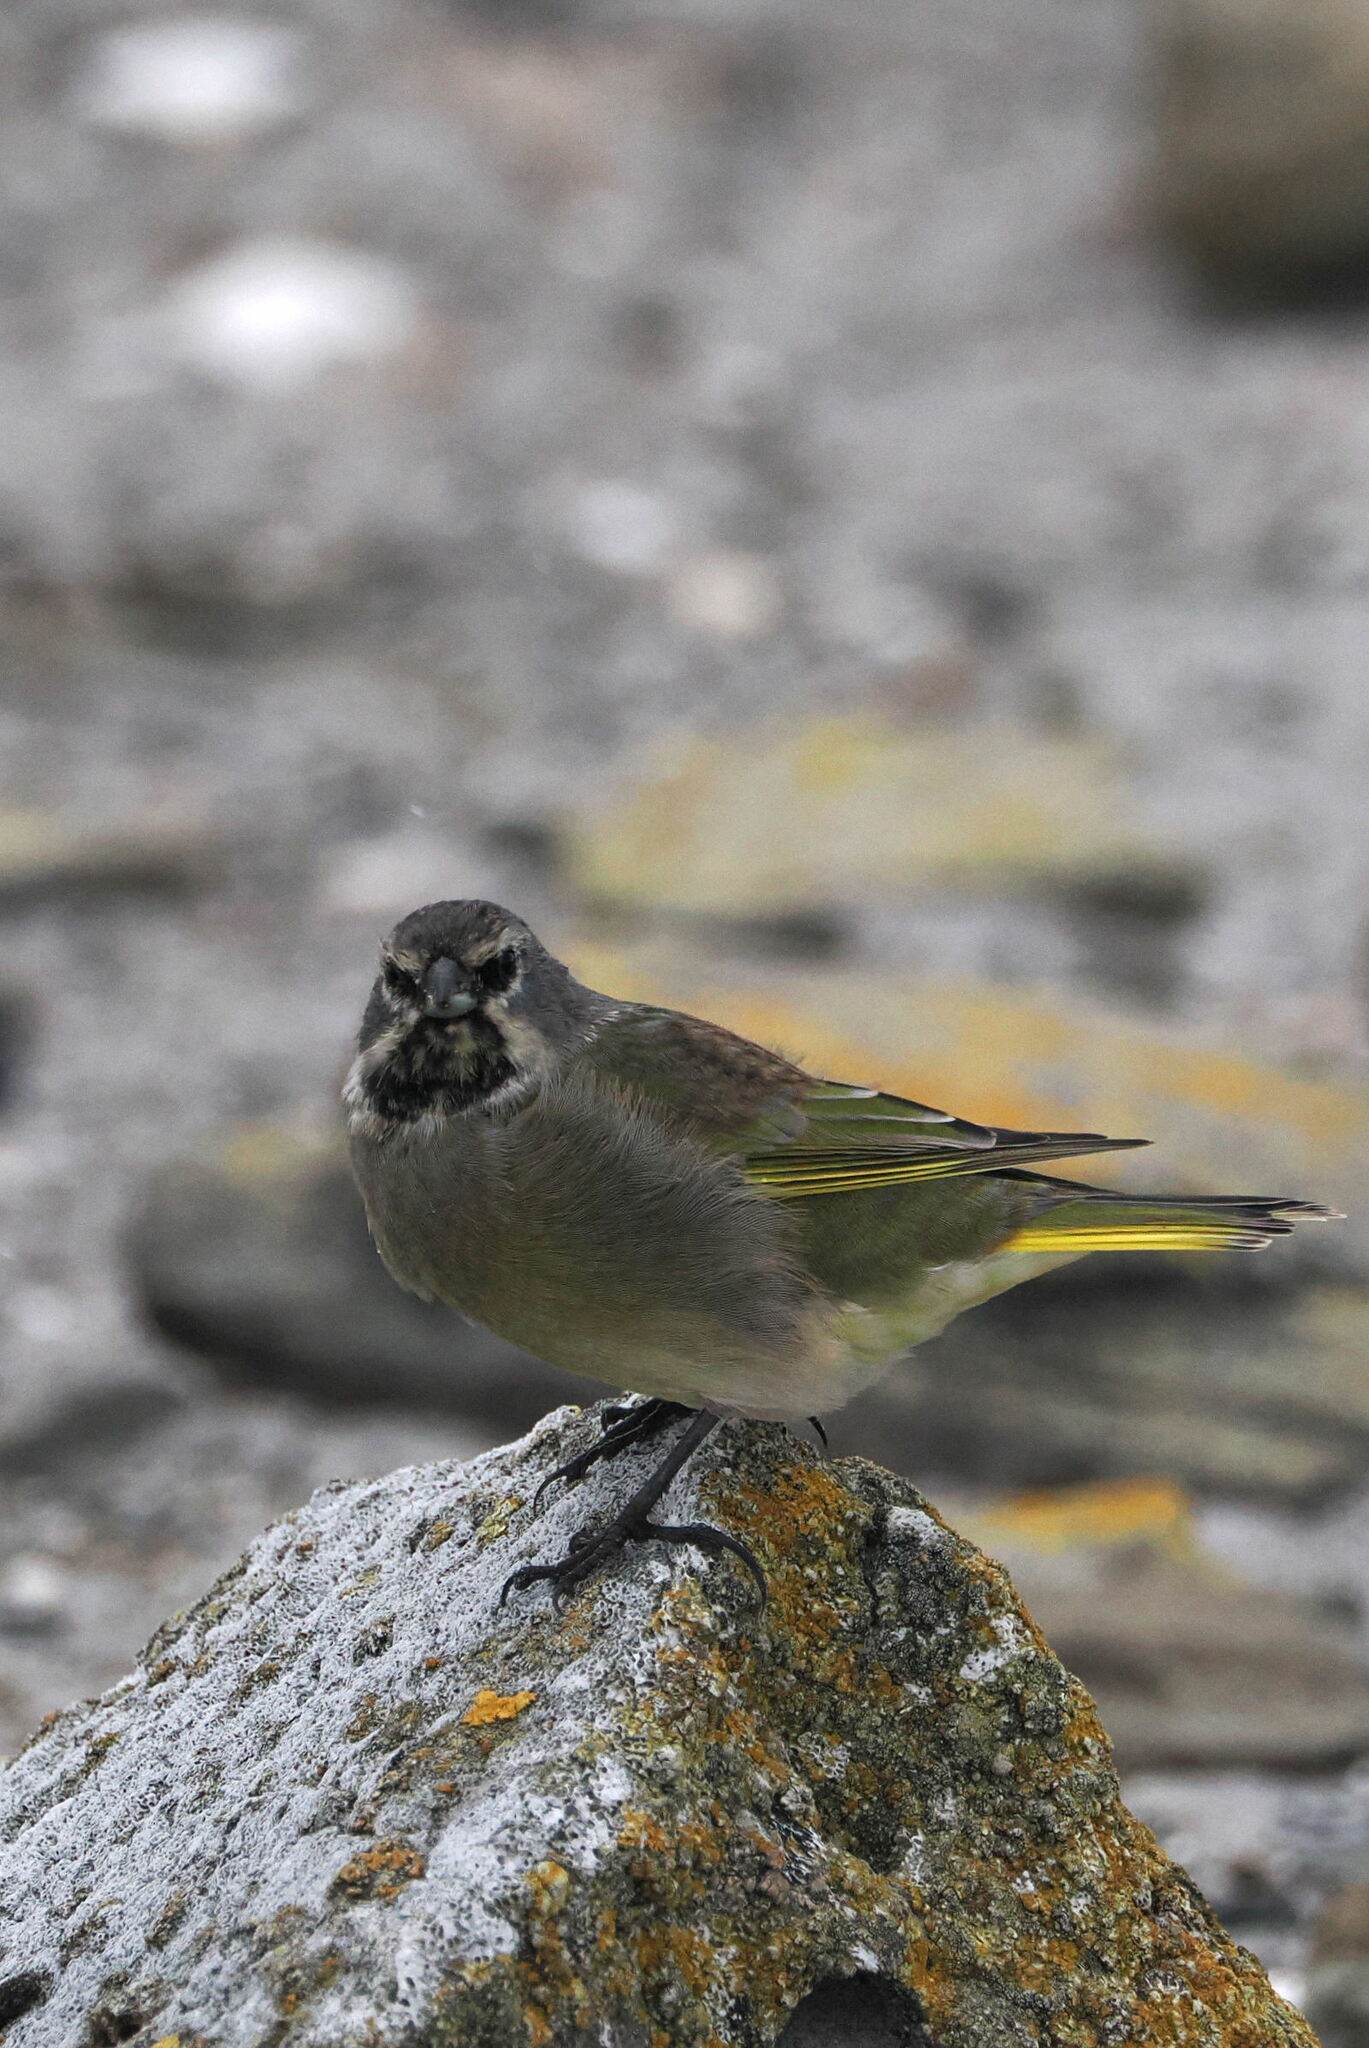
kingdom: Animalia
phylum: Chordata
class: Aves
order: Passeriformes
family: Thraupidae
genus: Melanodera
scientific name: Melanodera melanodera
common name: White-bridled finch
